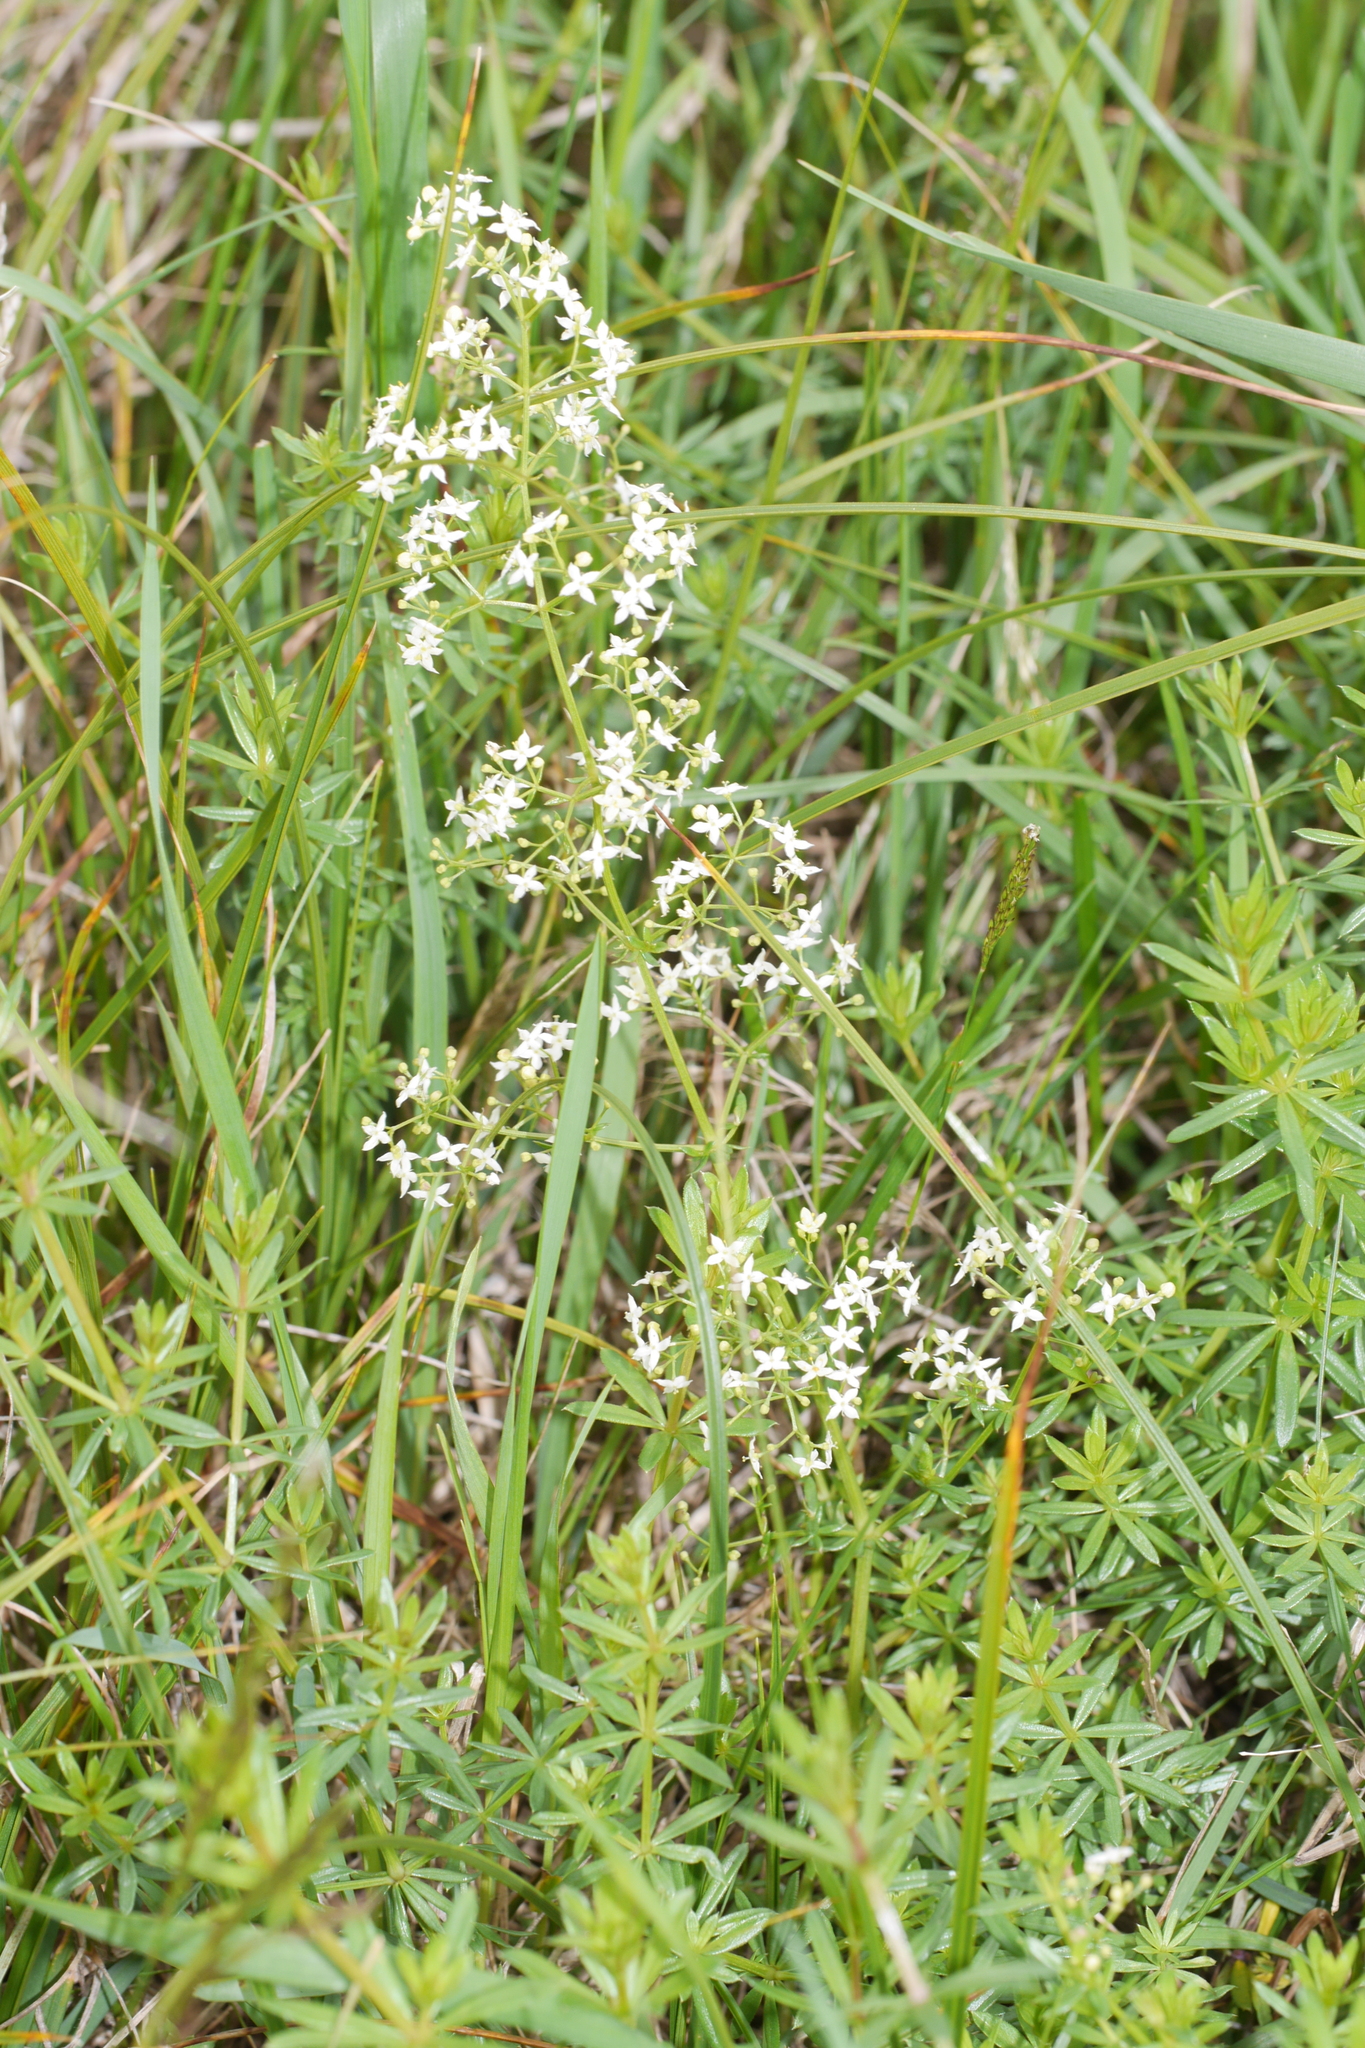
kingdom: Plantae
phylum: Tracheophyta
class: Magnoliopsida
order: Gentianales
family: Rubiaceae
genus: Galium
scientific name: Galium album
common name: White bedstraw
